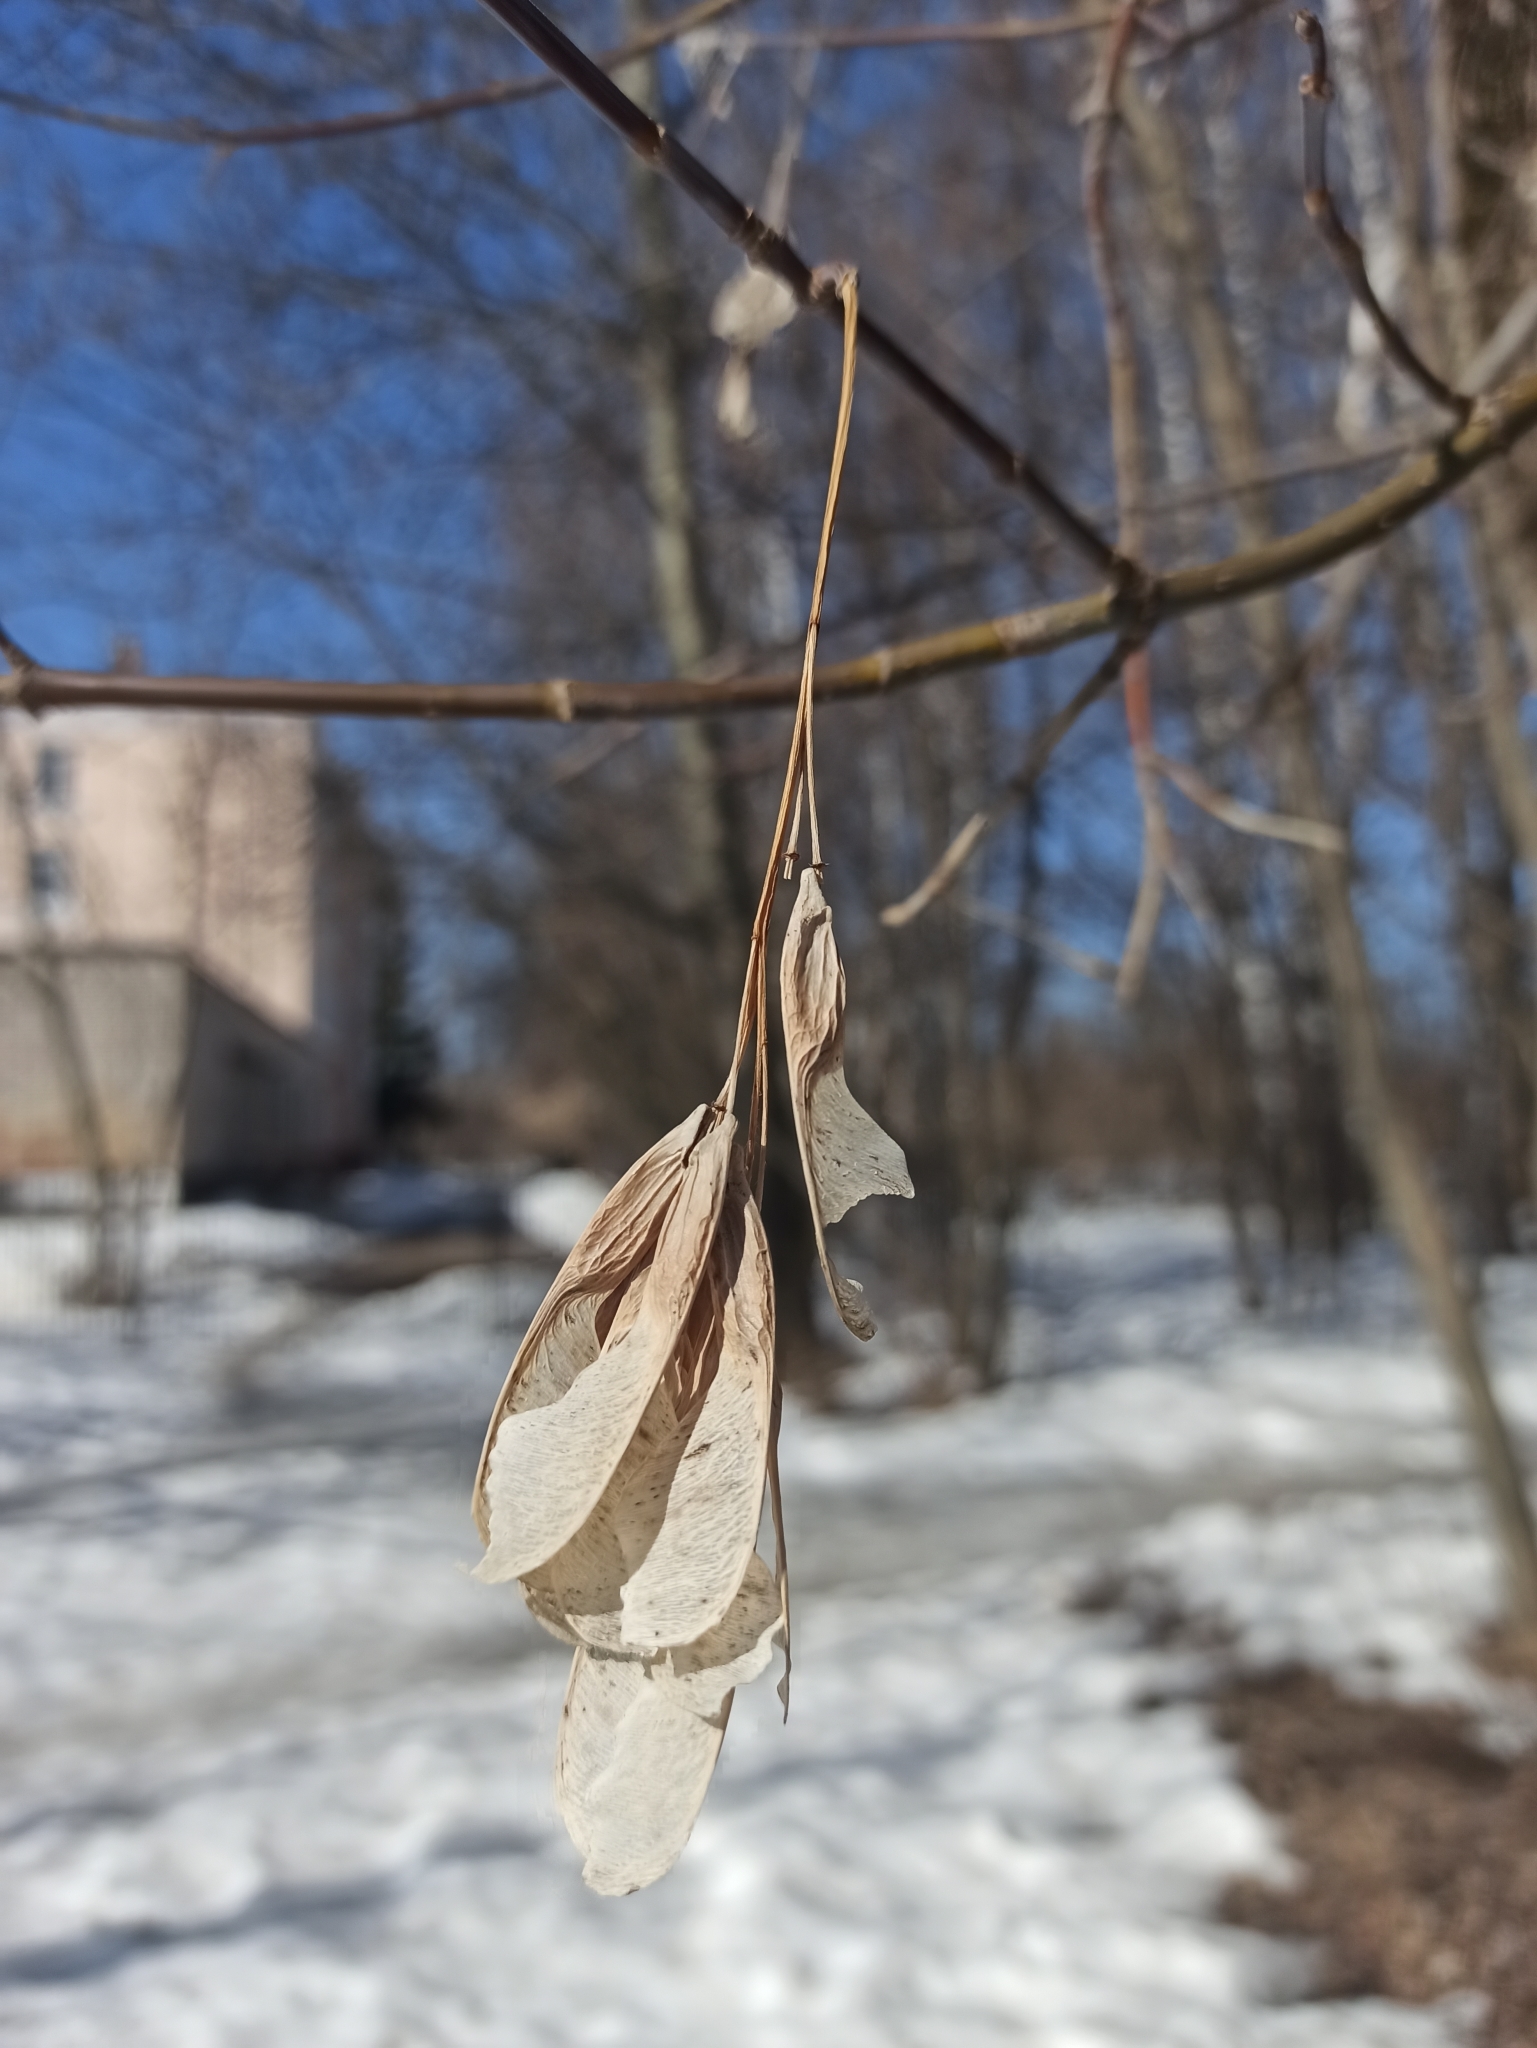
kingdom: Plantae
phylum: Tracheophyta
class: Magnoliopsida
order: Sapindales
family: Sapindaceae
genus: Acer
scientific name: Acer negundo
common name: Ashleaf maple
